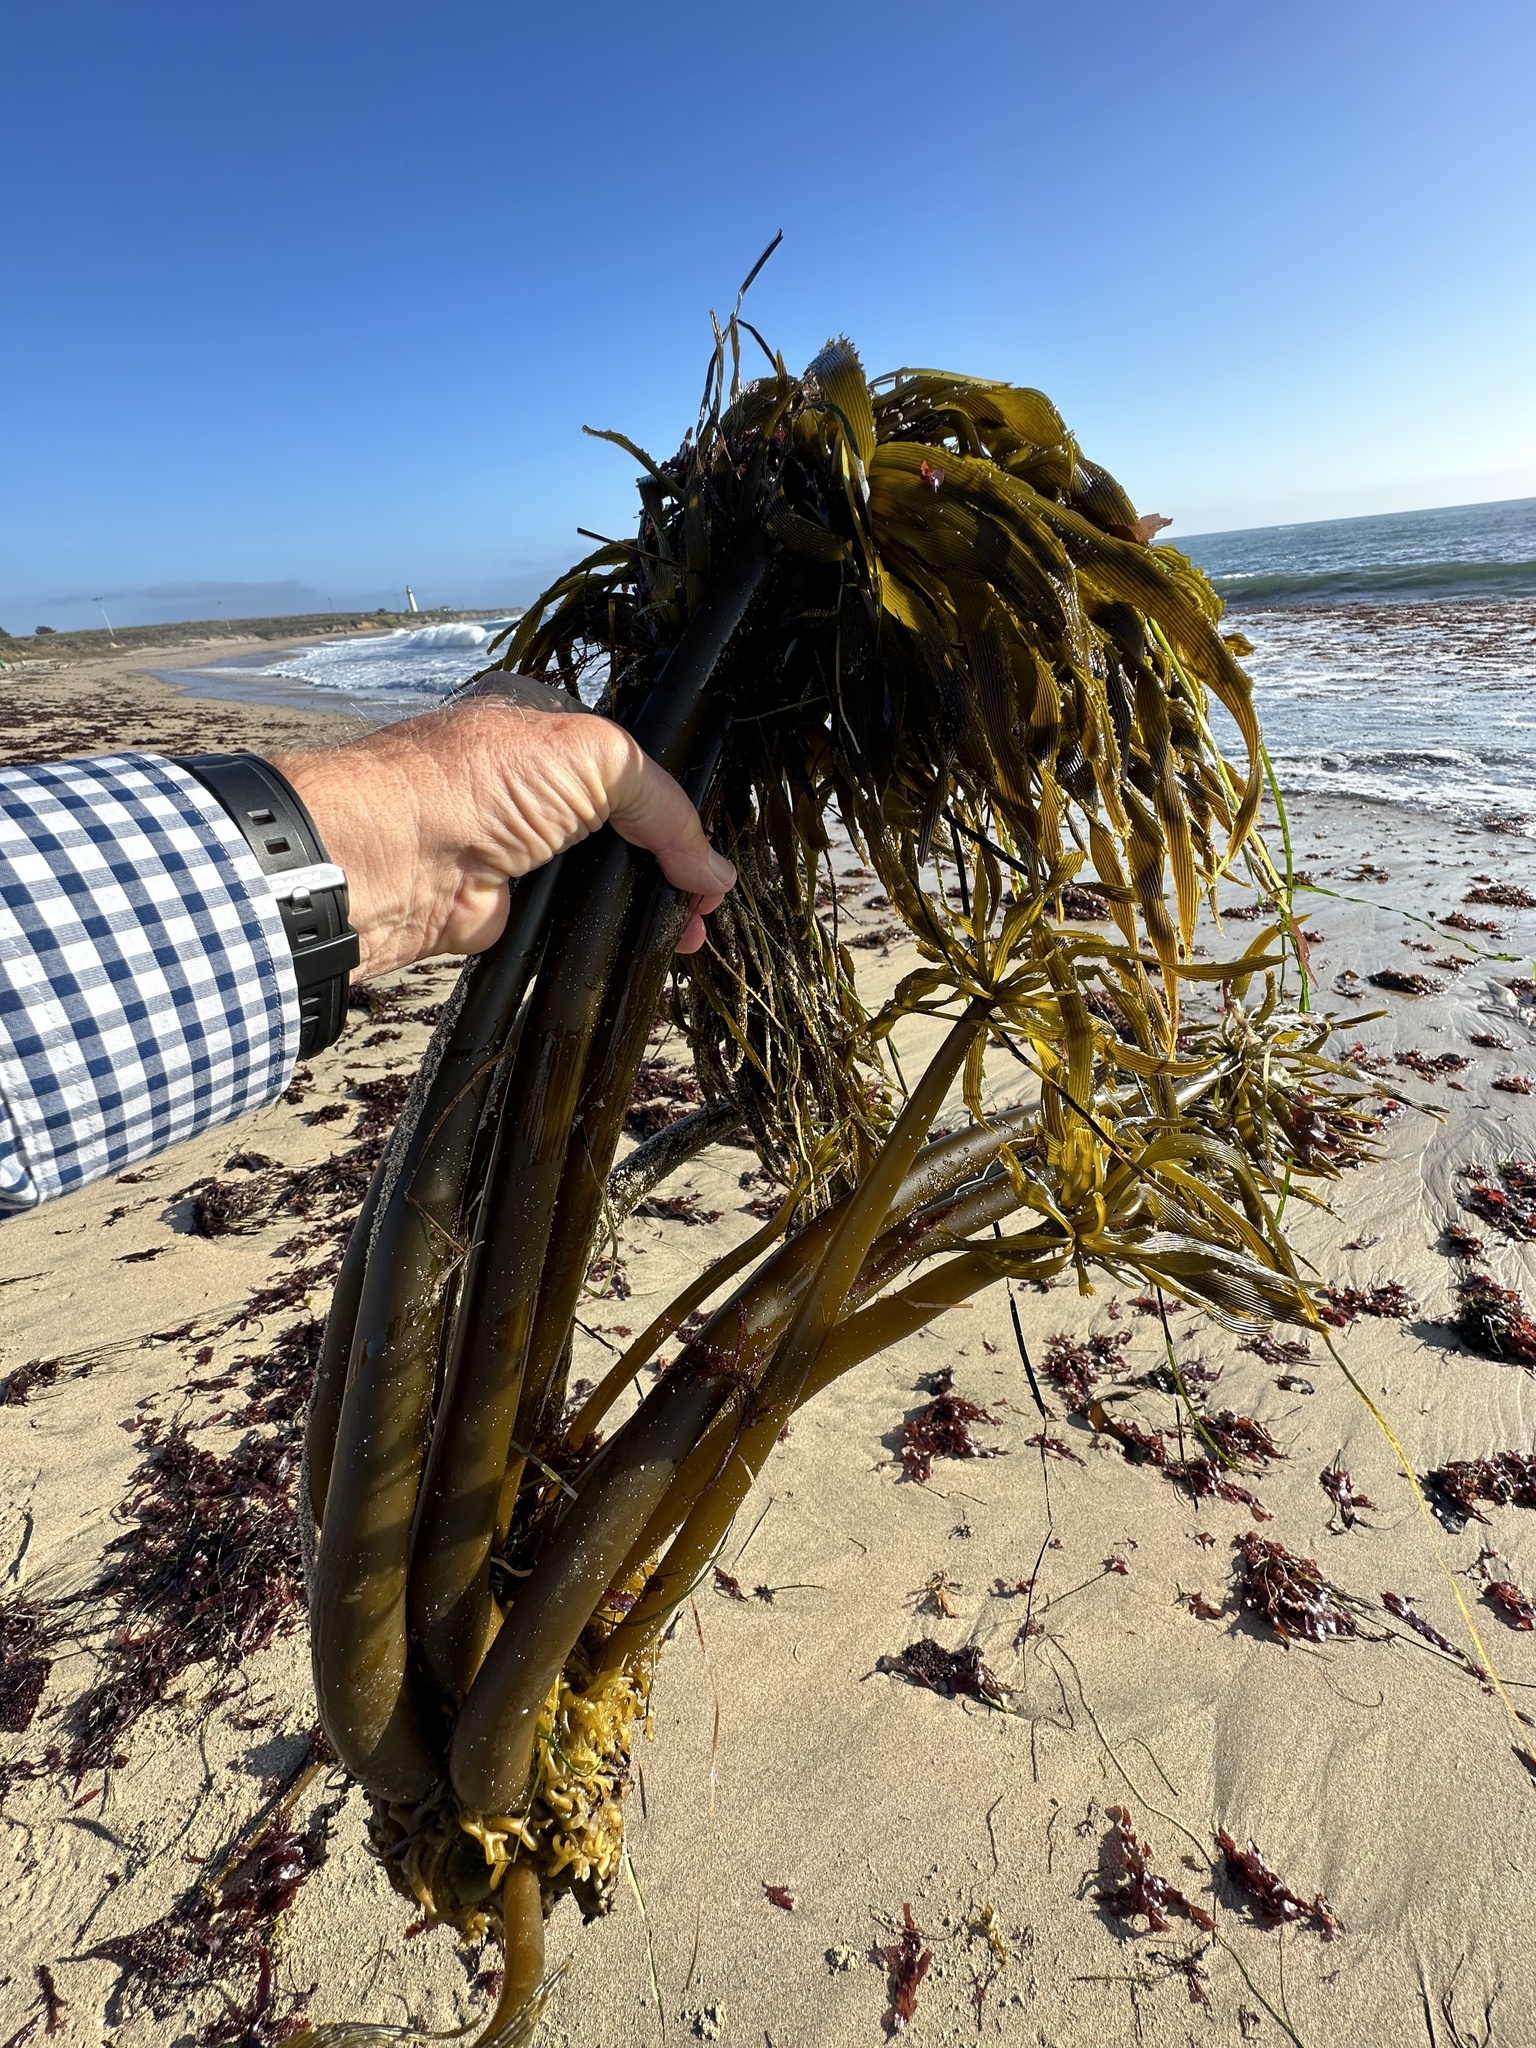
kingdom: Chromista
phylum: Ochrophyta
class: Phaeophyceae
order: Laminariales
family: Laminariaceae
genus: Postelsia
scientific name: Postelsia palmiformis
